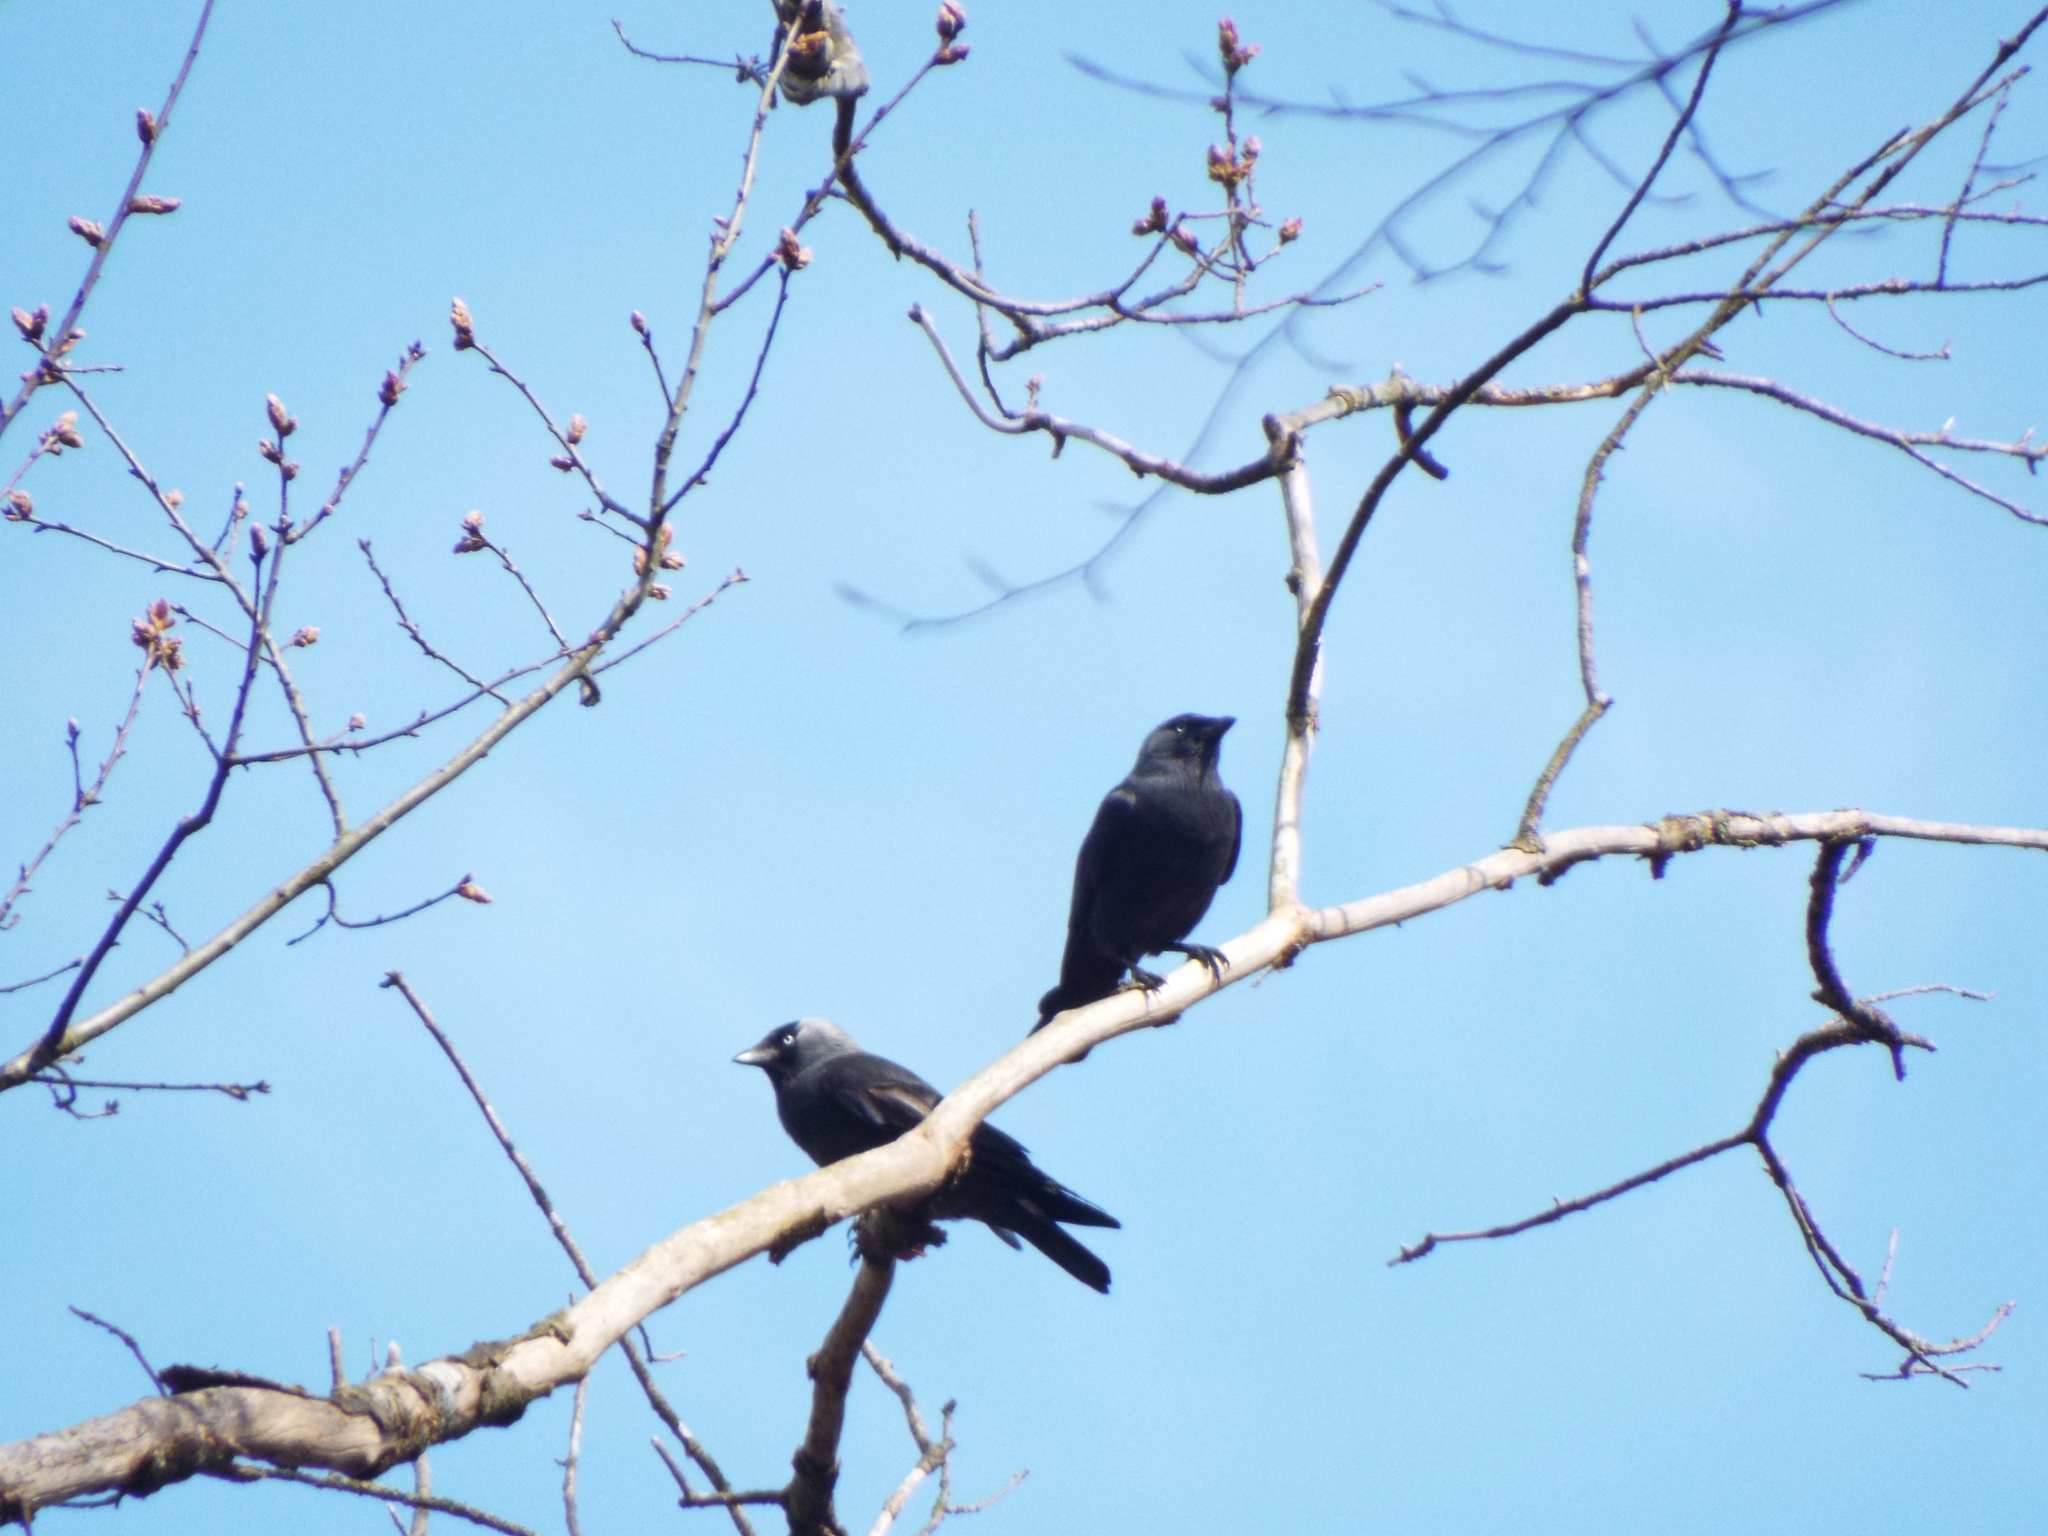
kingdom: Animalia
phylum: Chordata
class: Aves
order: Passeriformes
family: Corvidae
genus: Coloeus
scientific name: Coloeus monedula
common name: Western jackdaw
